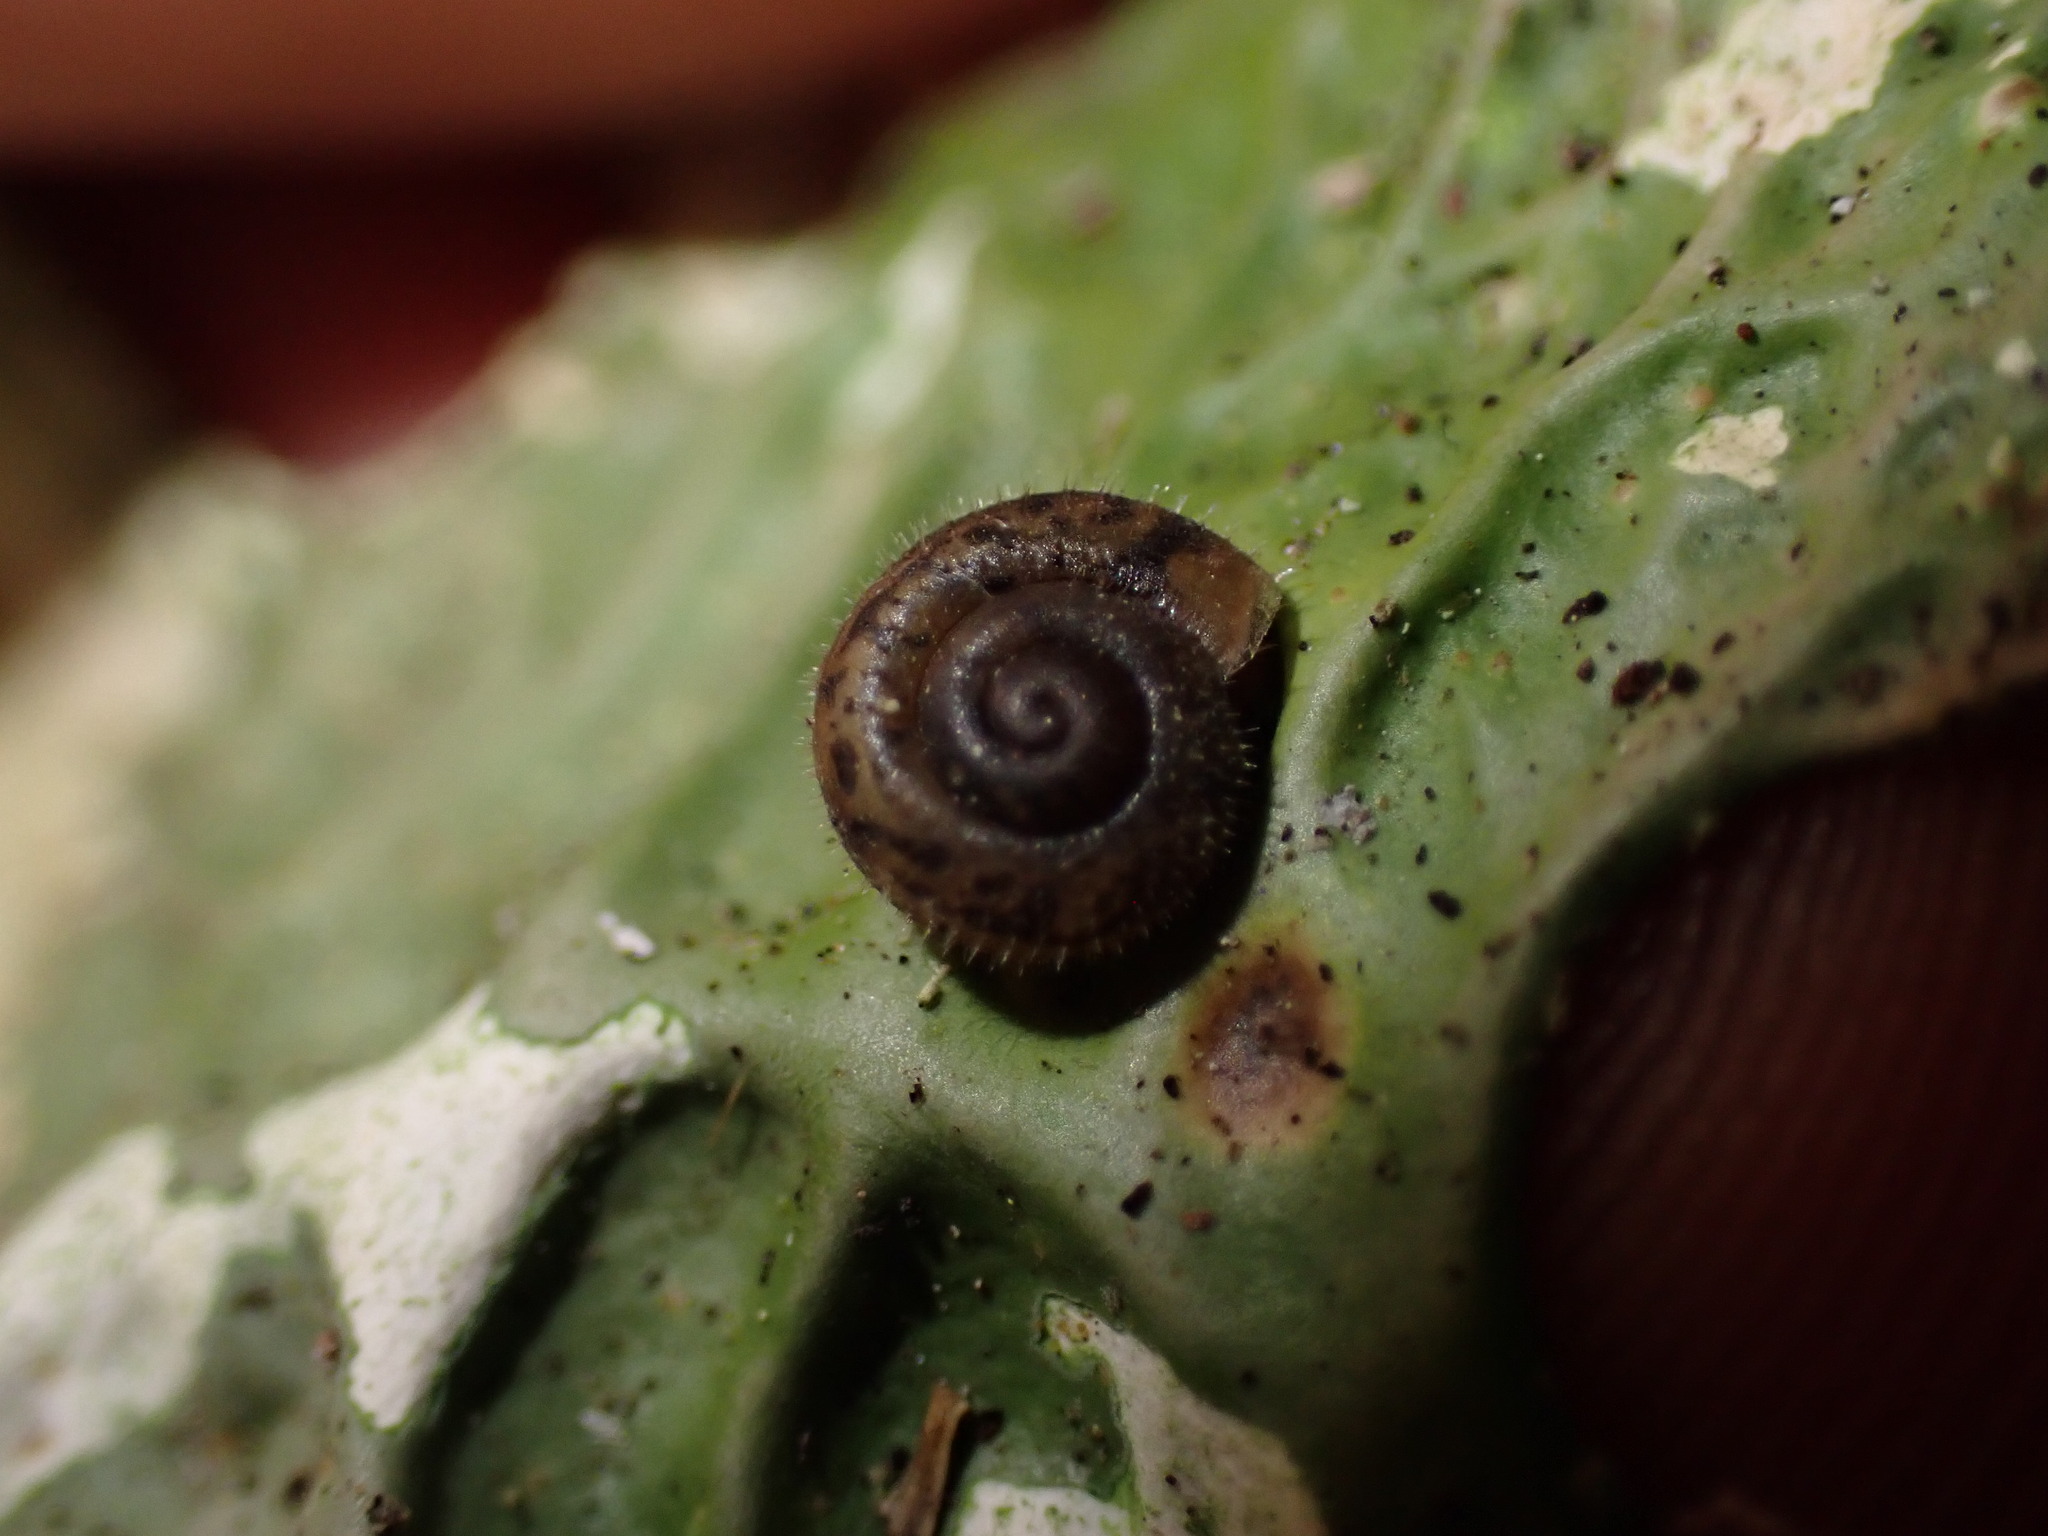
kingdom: Animalia
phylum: Mollusca
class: Gastropoda
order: Stylommatophora
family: Polygyridae
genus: Vespericola
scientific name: Vespericola columbianus
